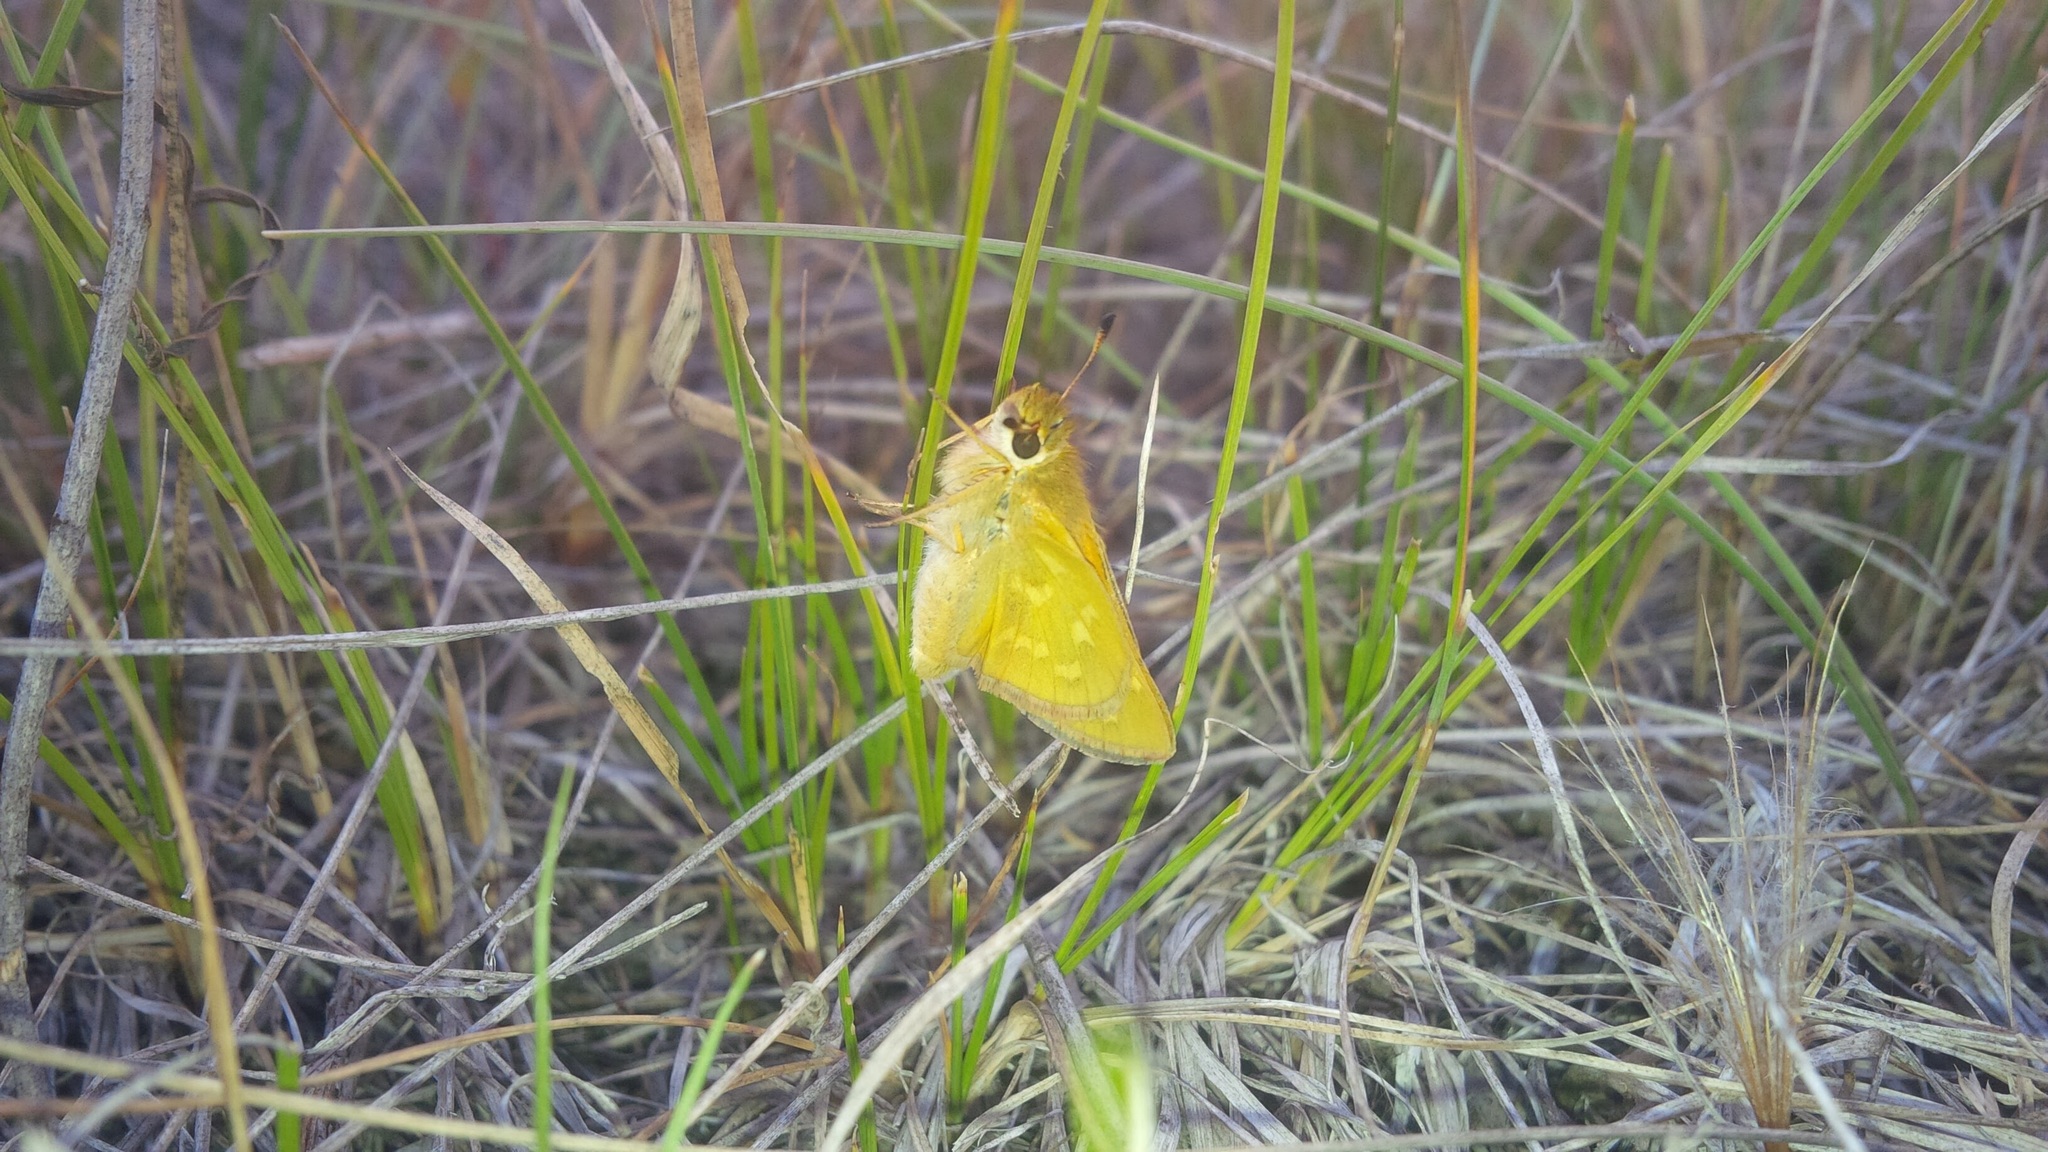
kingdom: Animalia
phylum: Arthropoda
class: Insecta
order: Lepidoptera
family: Hesperiidae
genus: Hesperia
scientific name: Hesperia comma
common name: Common branded skipper
